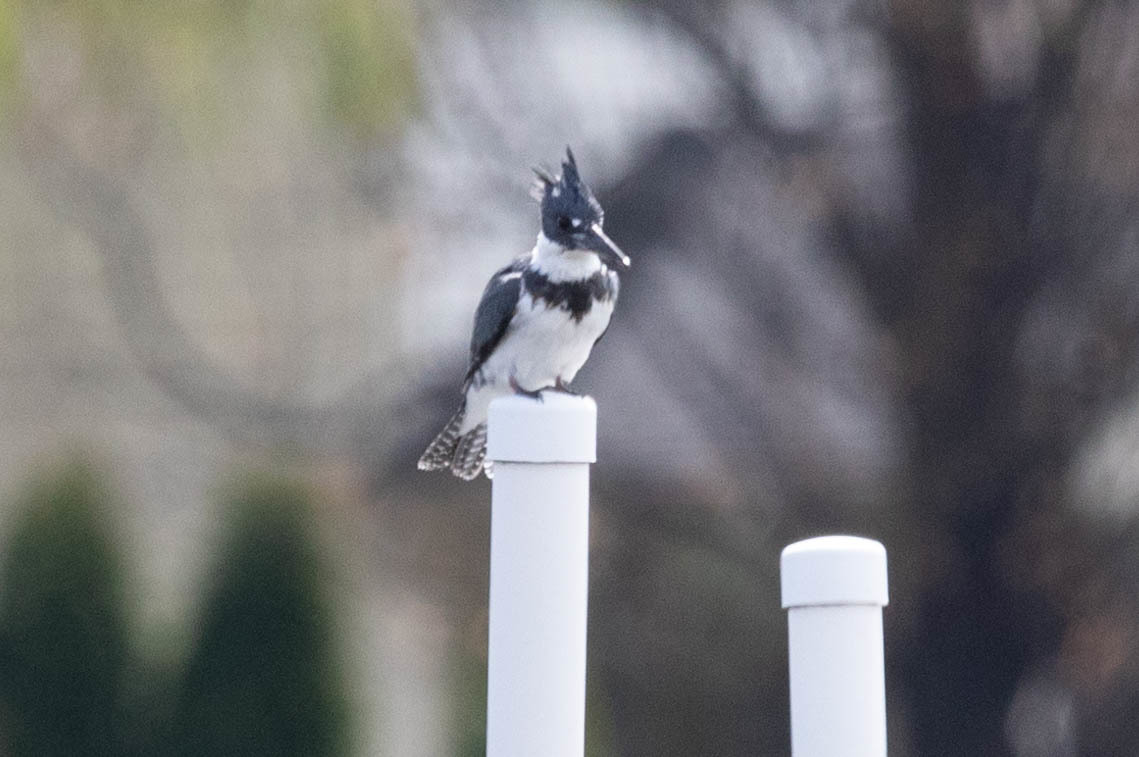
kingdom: Animalia
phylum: Chordata
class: Aves
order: Coraciiformes
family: Alcedinidae
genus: Megaceryle
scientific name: Megaceryle alcyon
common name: Belted kingfisher
